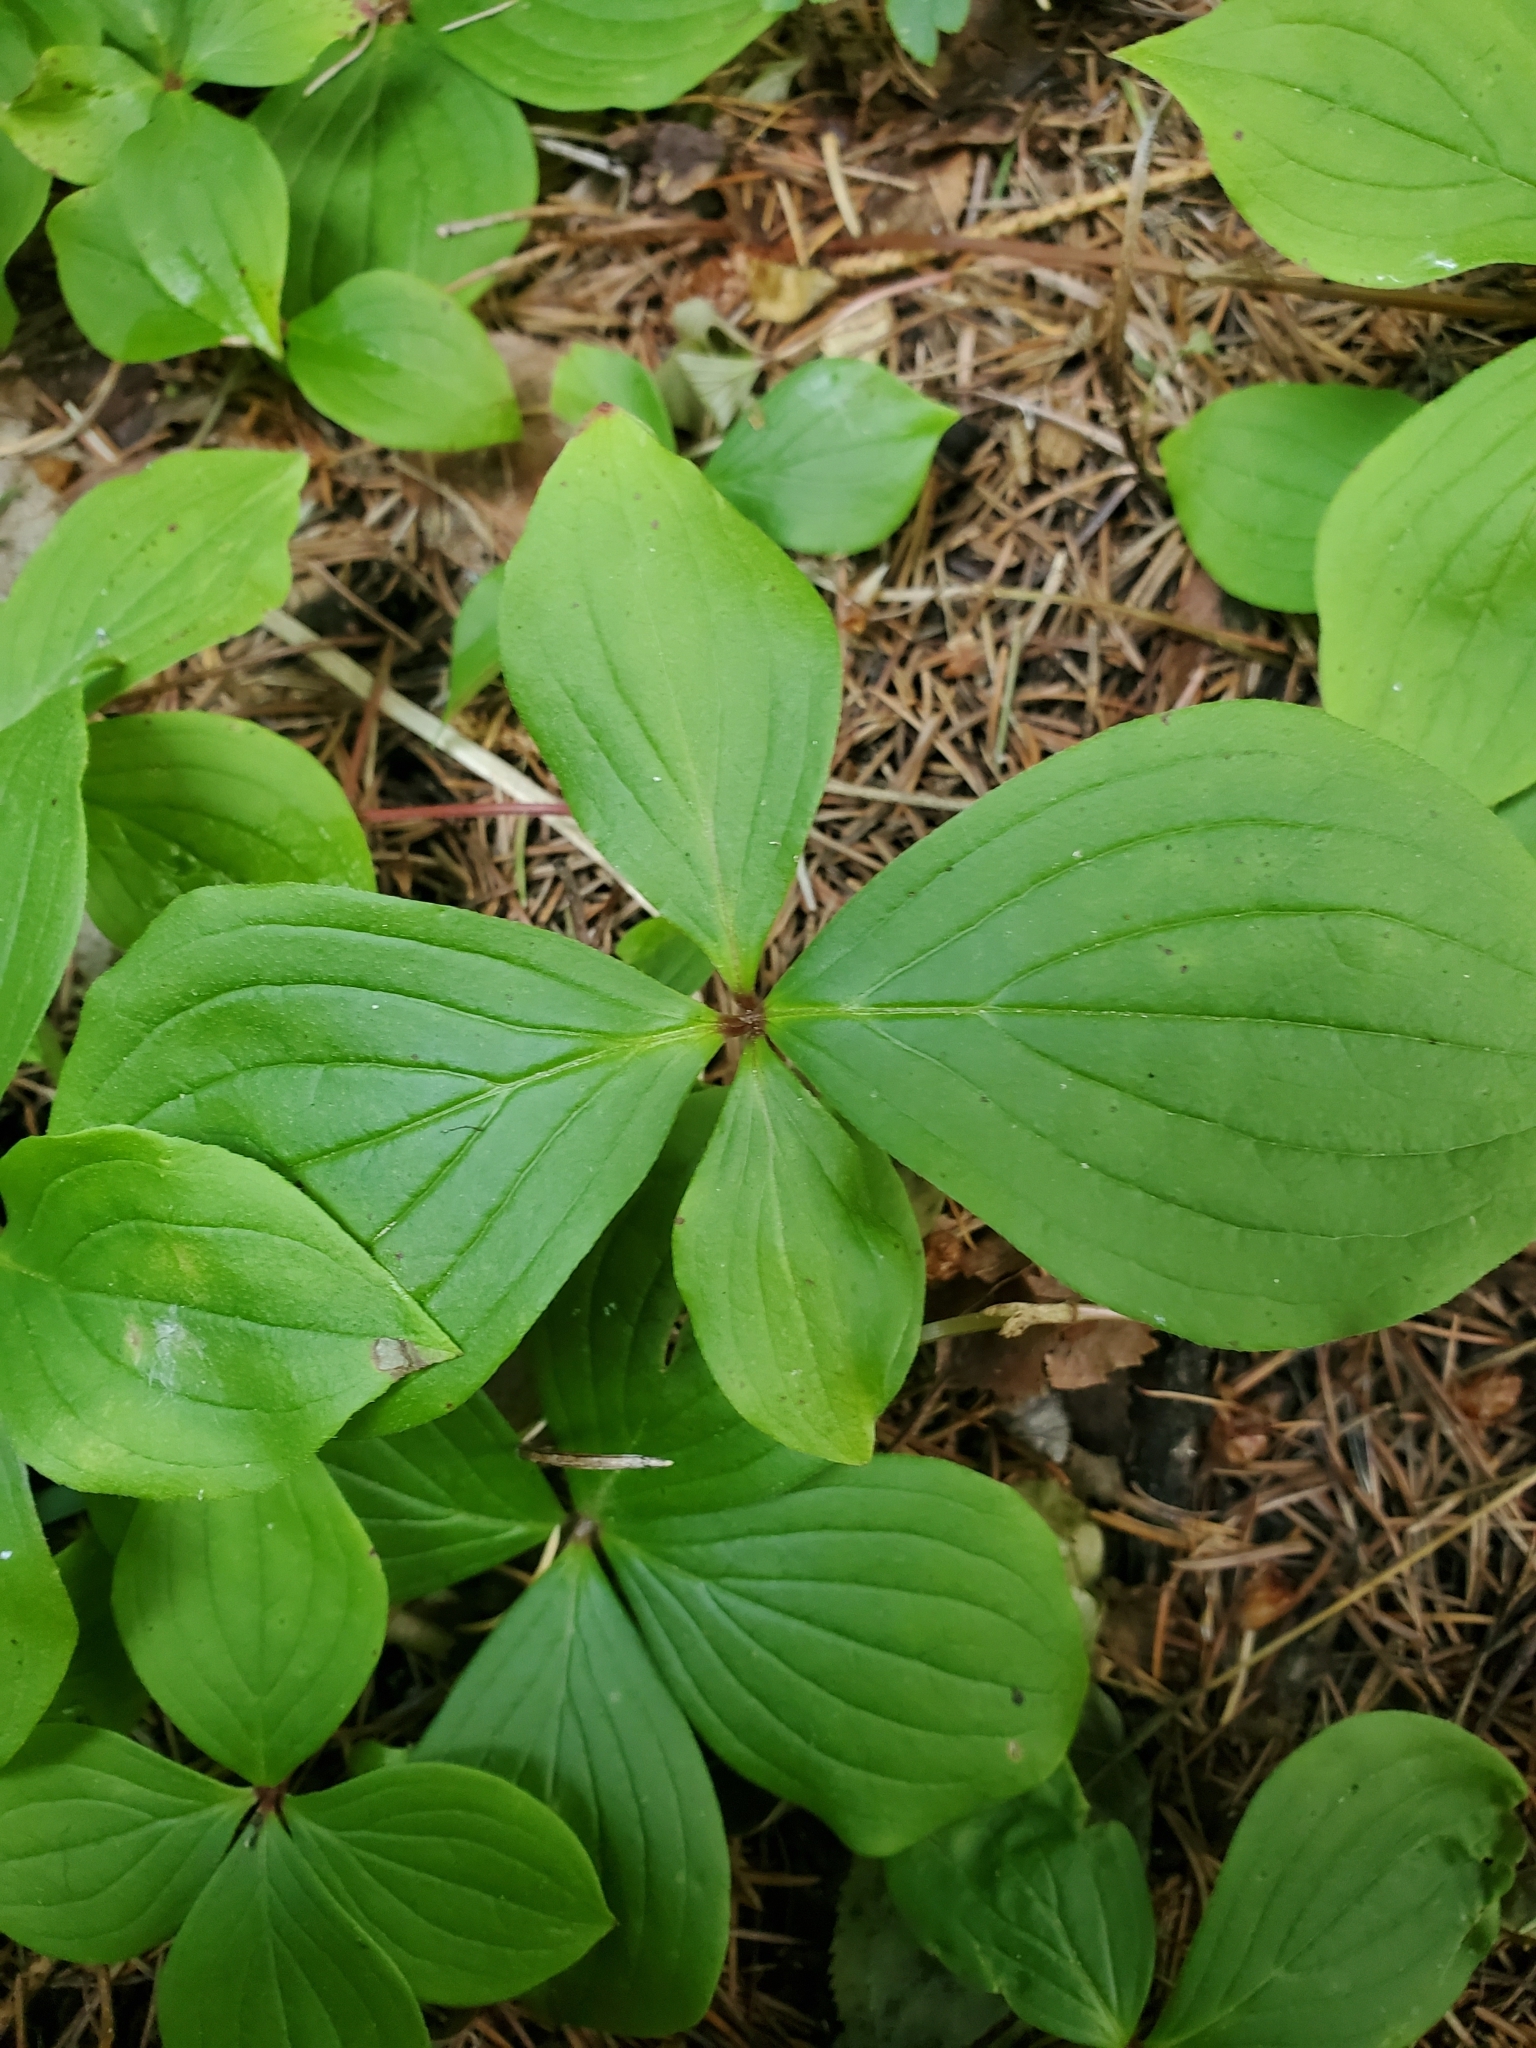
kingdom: Plantae
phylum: Tracheophyta
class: Magnoliopsida
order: Cornales
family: Cornaceae
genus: Cornus
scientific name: Cornus canadensis
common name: Creeping dogwood
